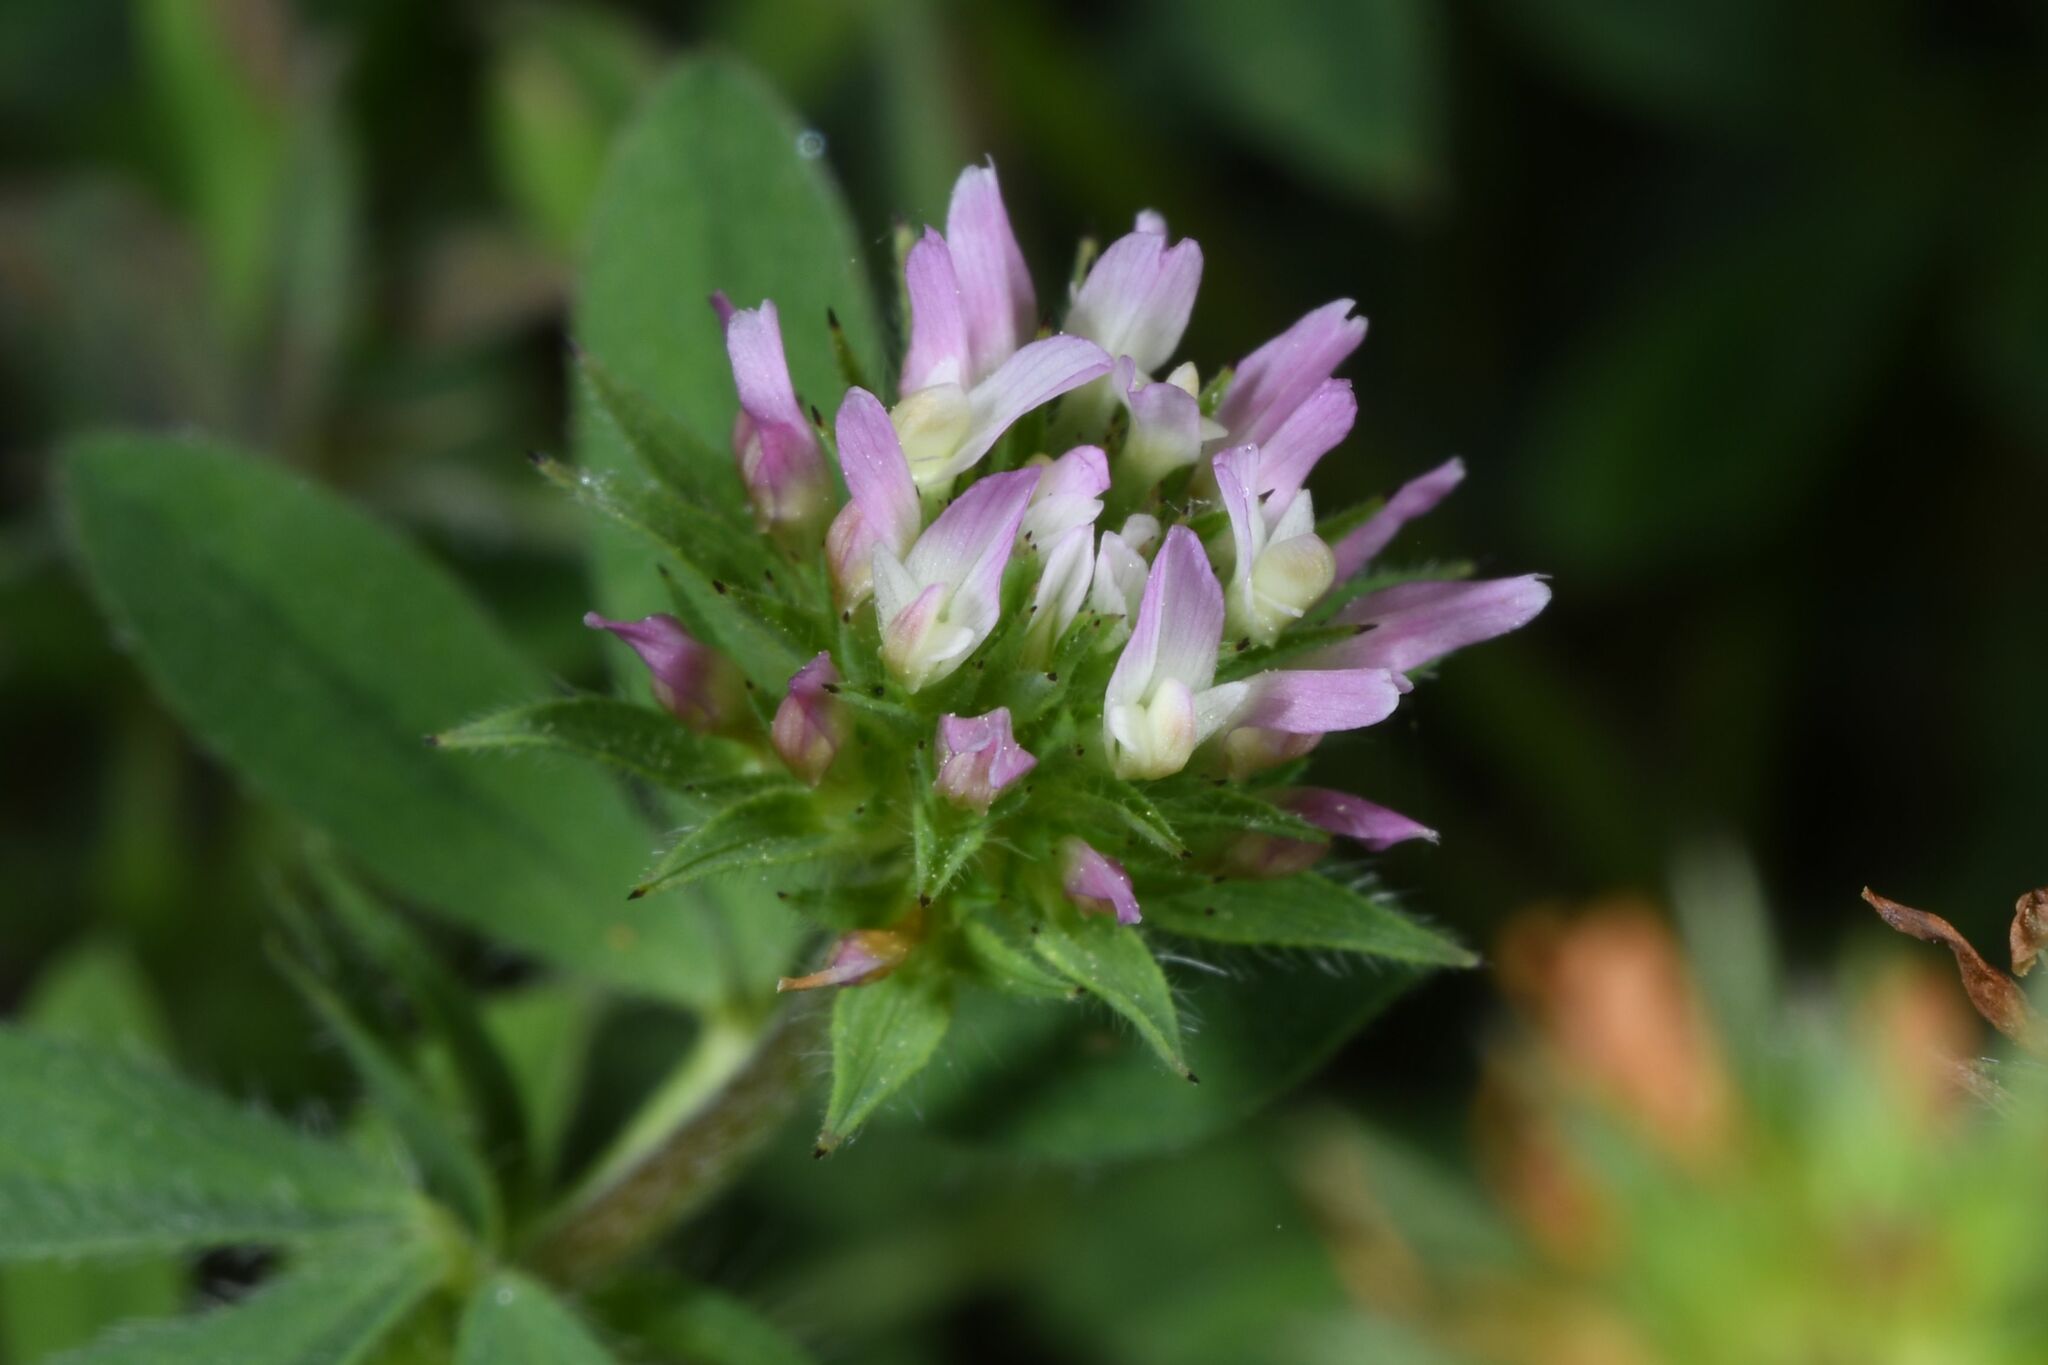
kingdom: Plantae
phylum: Tracheophyta
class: Magnoliopsida
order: Fabales
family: Fabaceae
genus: Trifolium
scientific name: Trifolium squamosum
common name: Sea clover
